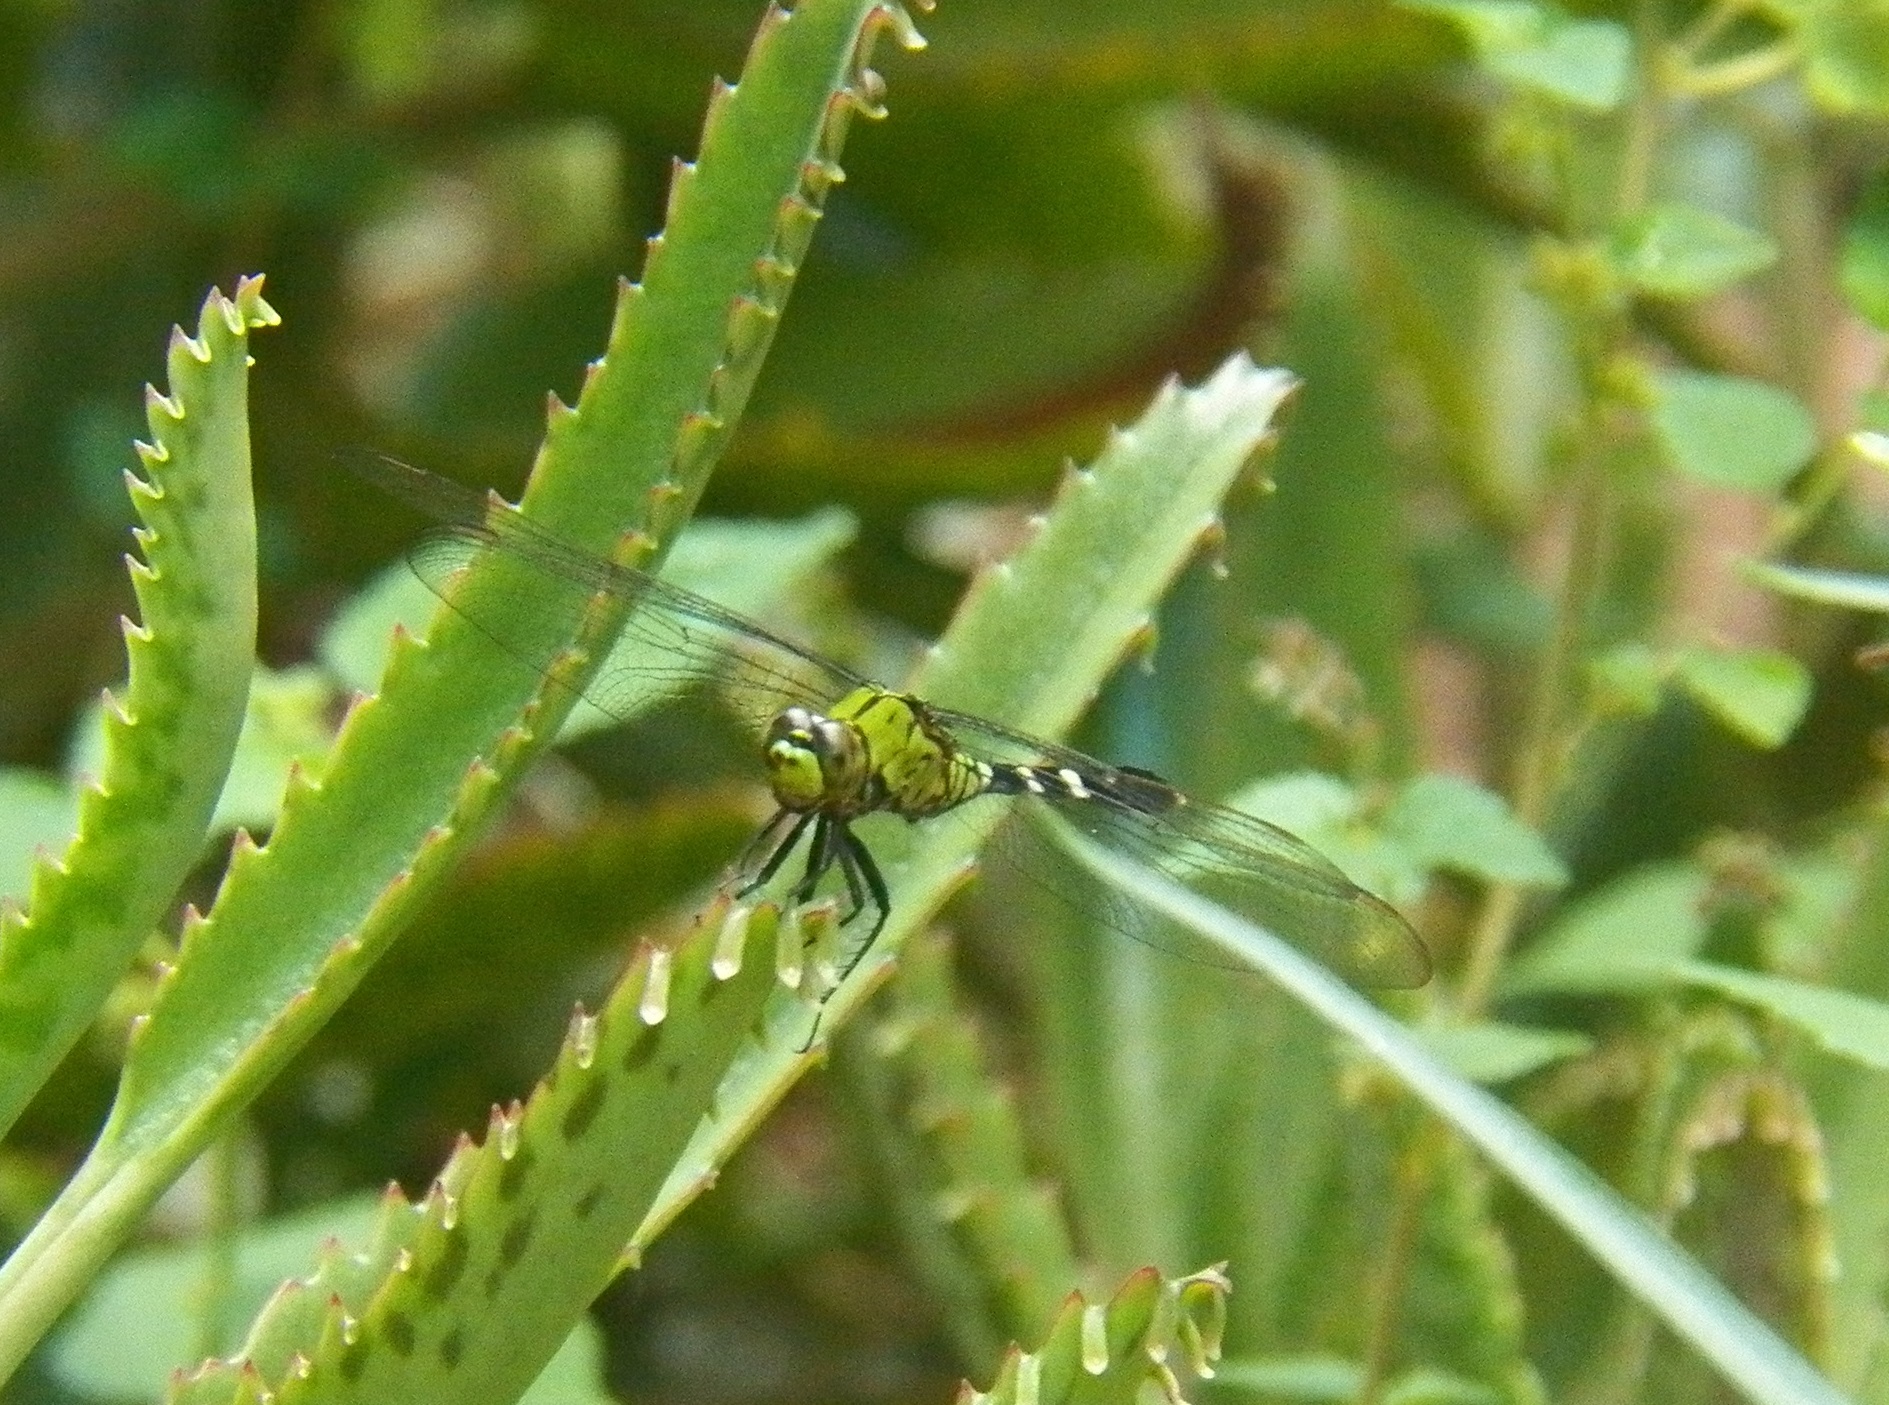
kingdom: Animalia
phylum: Arthropoda
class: Insecta
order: Odonata
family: Libellulidae
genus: Erythemis
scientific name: Erythemis simplicicollis
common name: Eastern pondhawk
